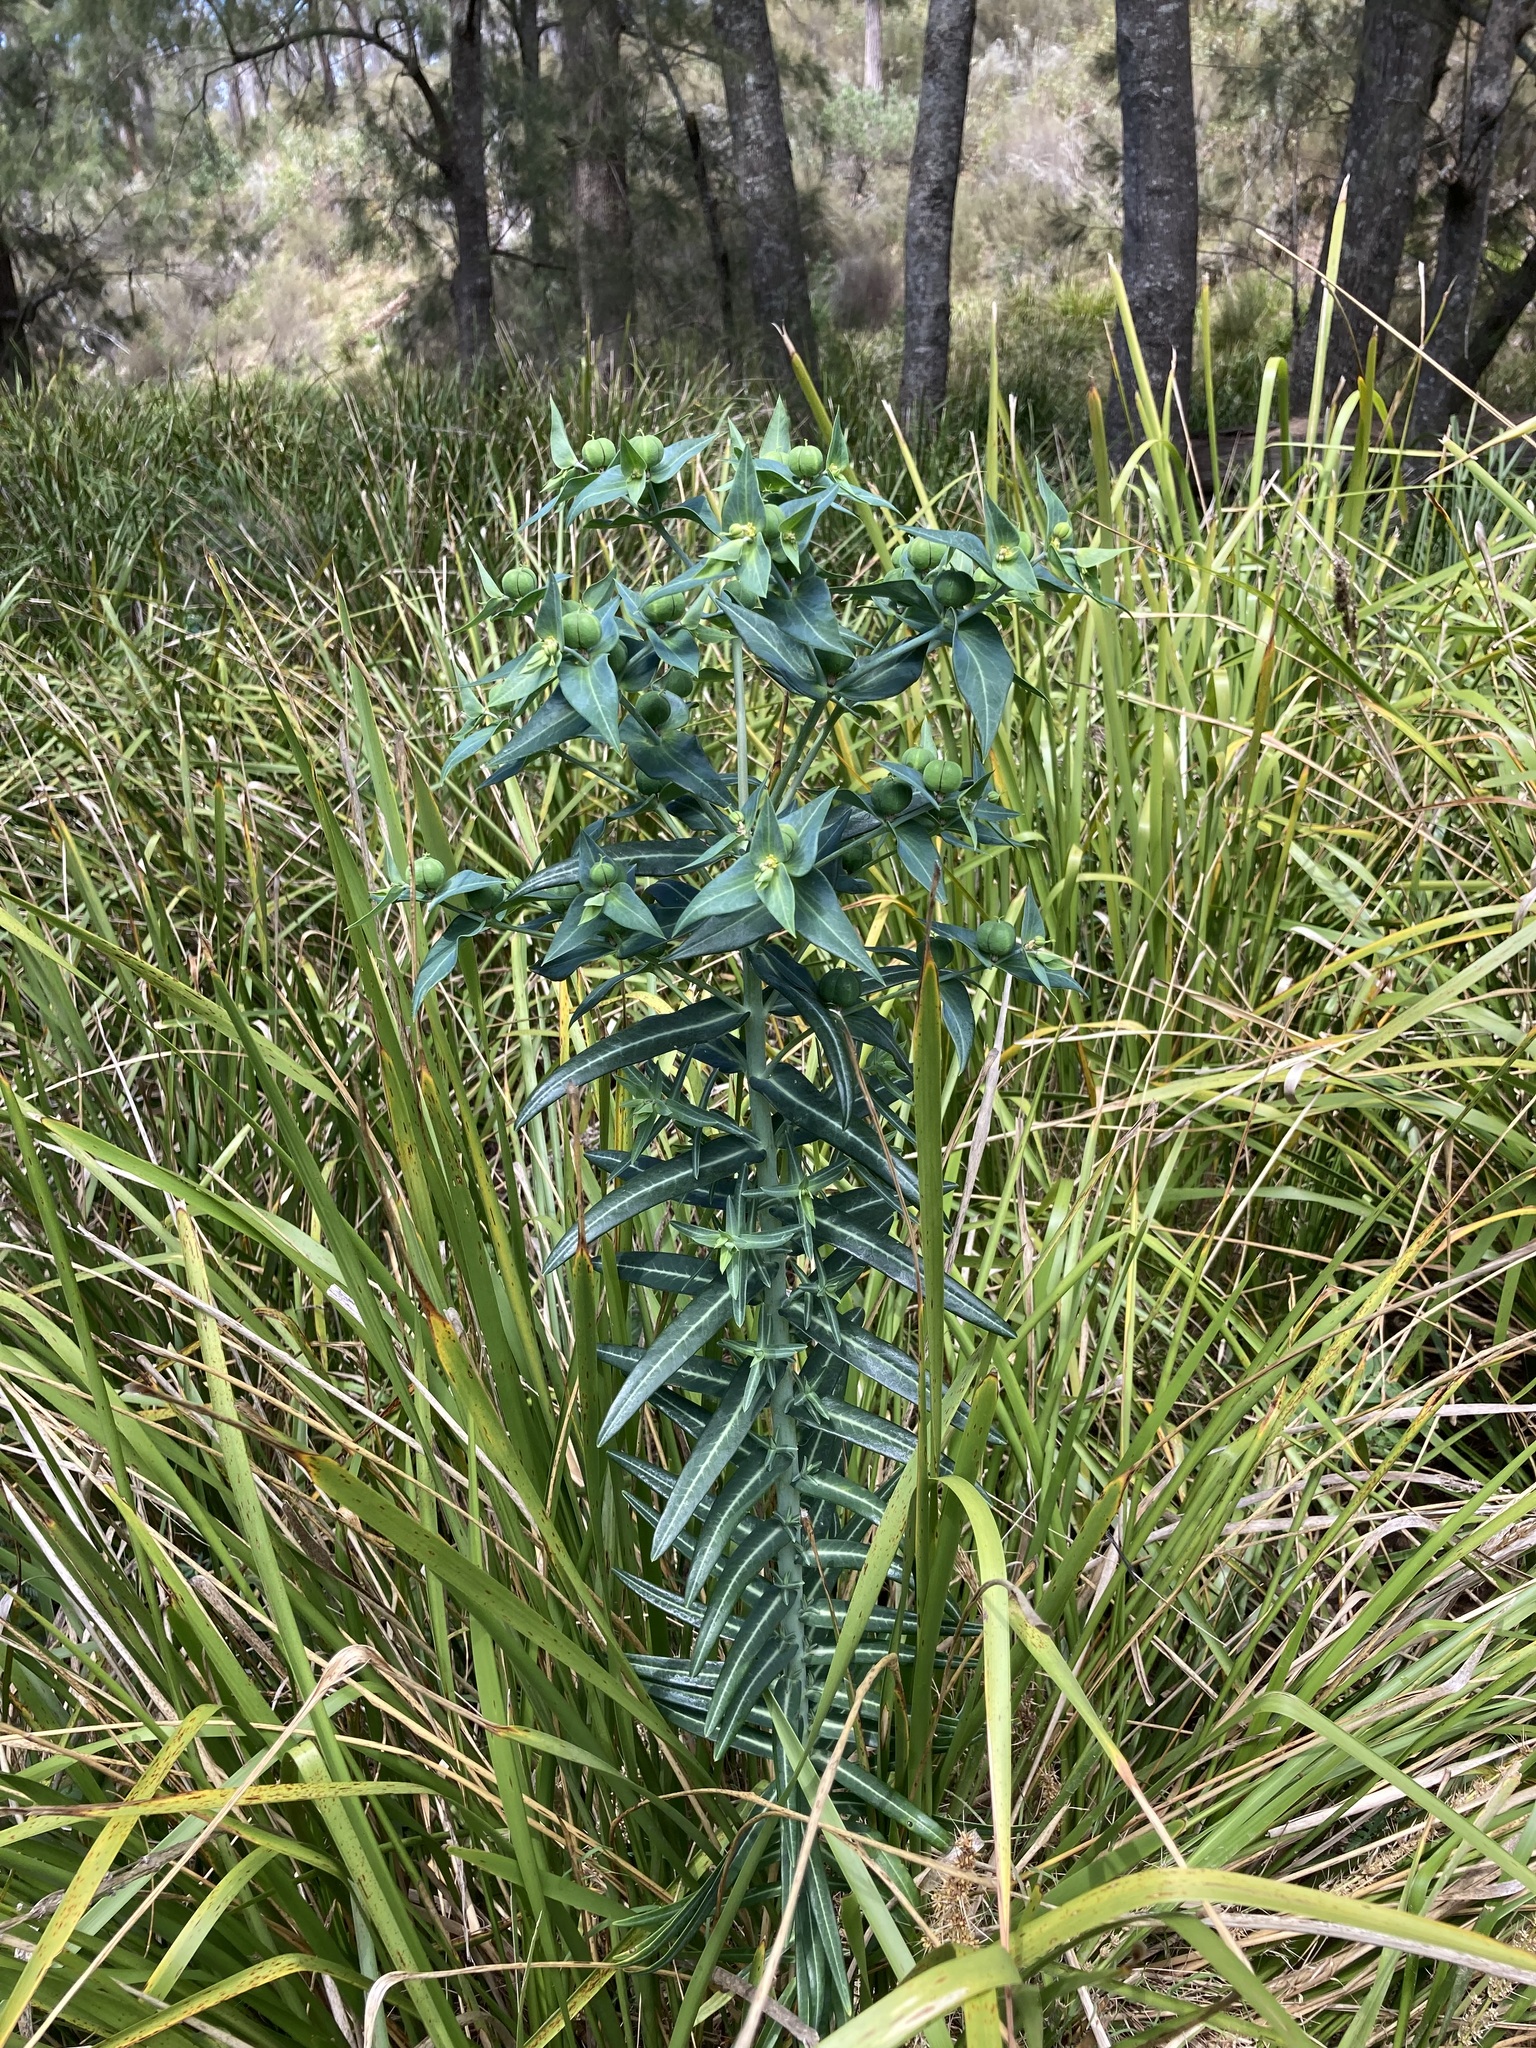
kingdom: Plantae
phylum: Tracheophyta
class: Magnoliopsida
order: Malpighiales
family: Euphorbiaceae
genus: Euphorbia
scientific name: Euphorbia lathyris
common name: Caper spurge
